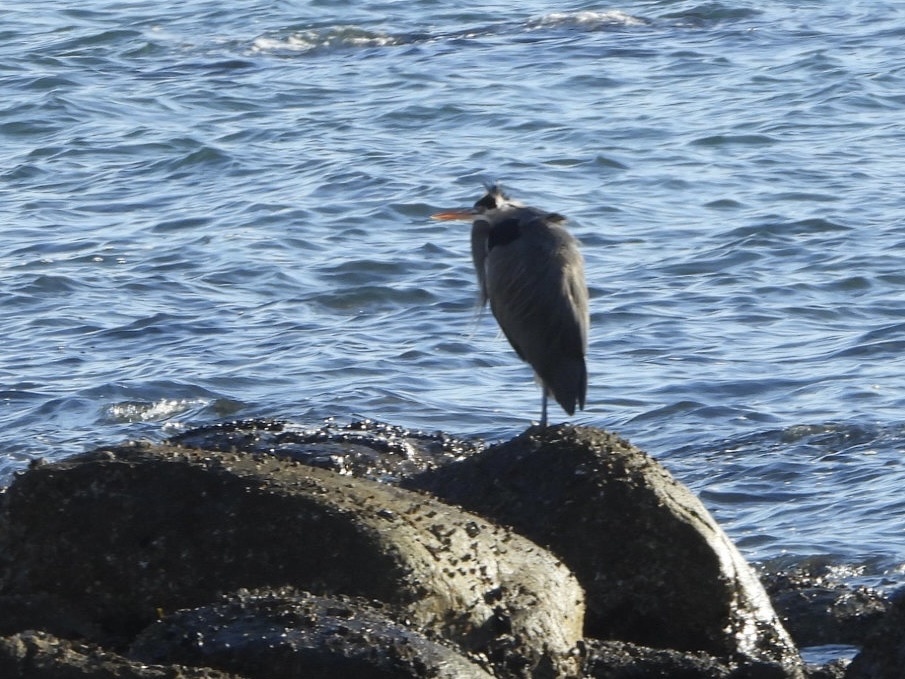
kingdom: Animalia
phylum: Chordata
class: Aves
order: Pelecaniformes
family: Ardeidae
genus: Ardea
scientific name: Ardea herodias
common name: Great blue heron
